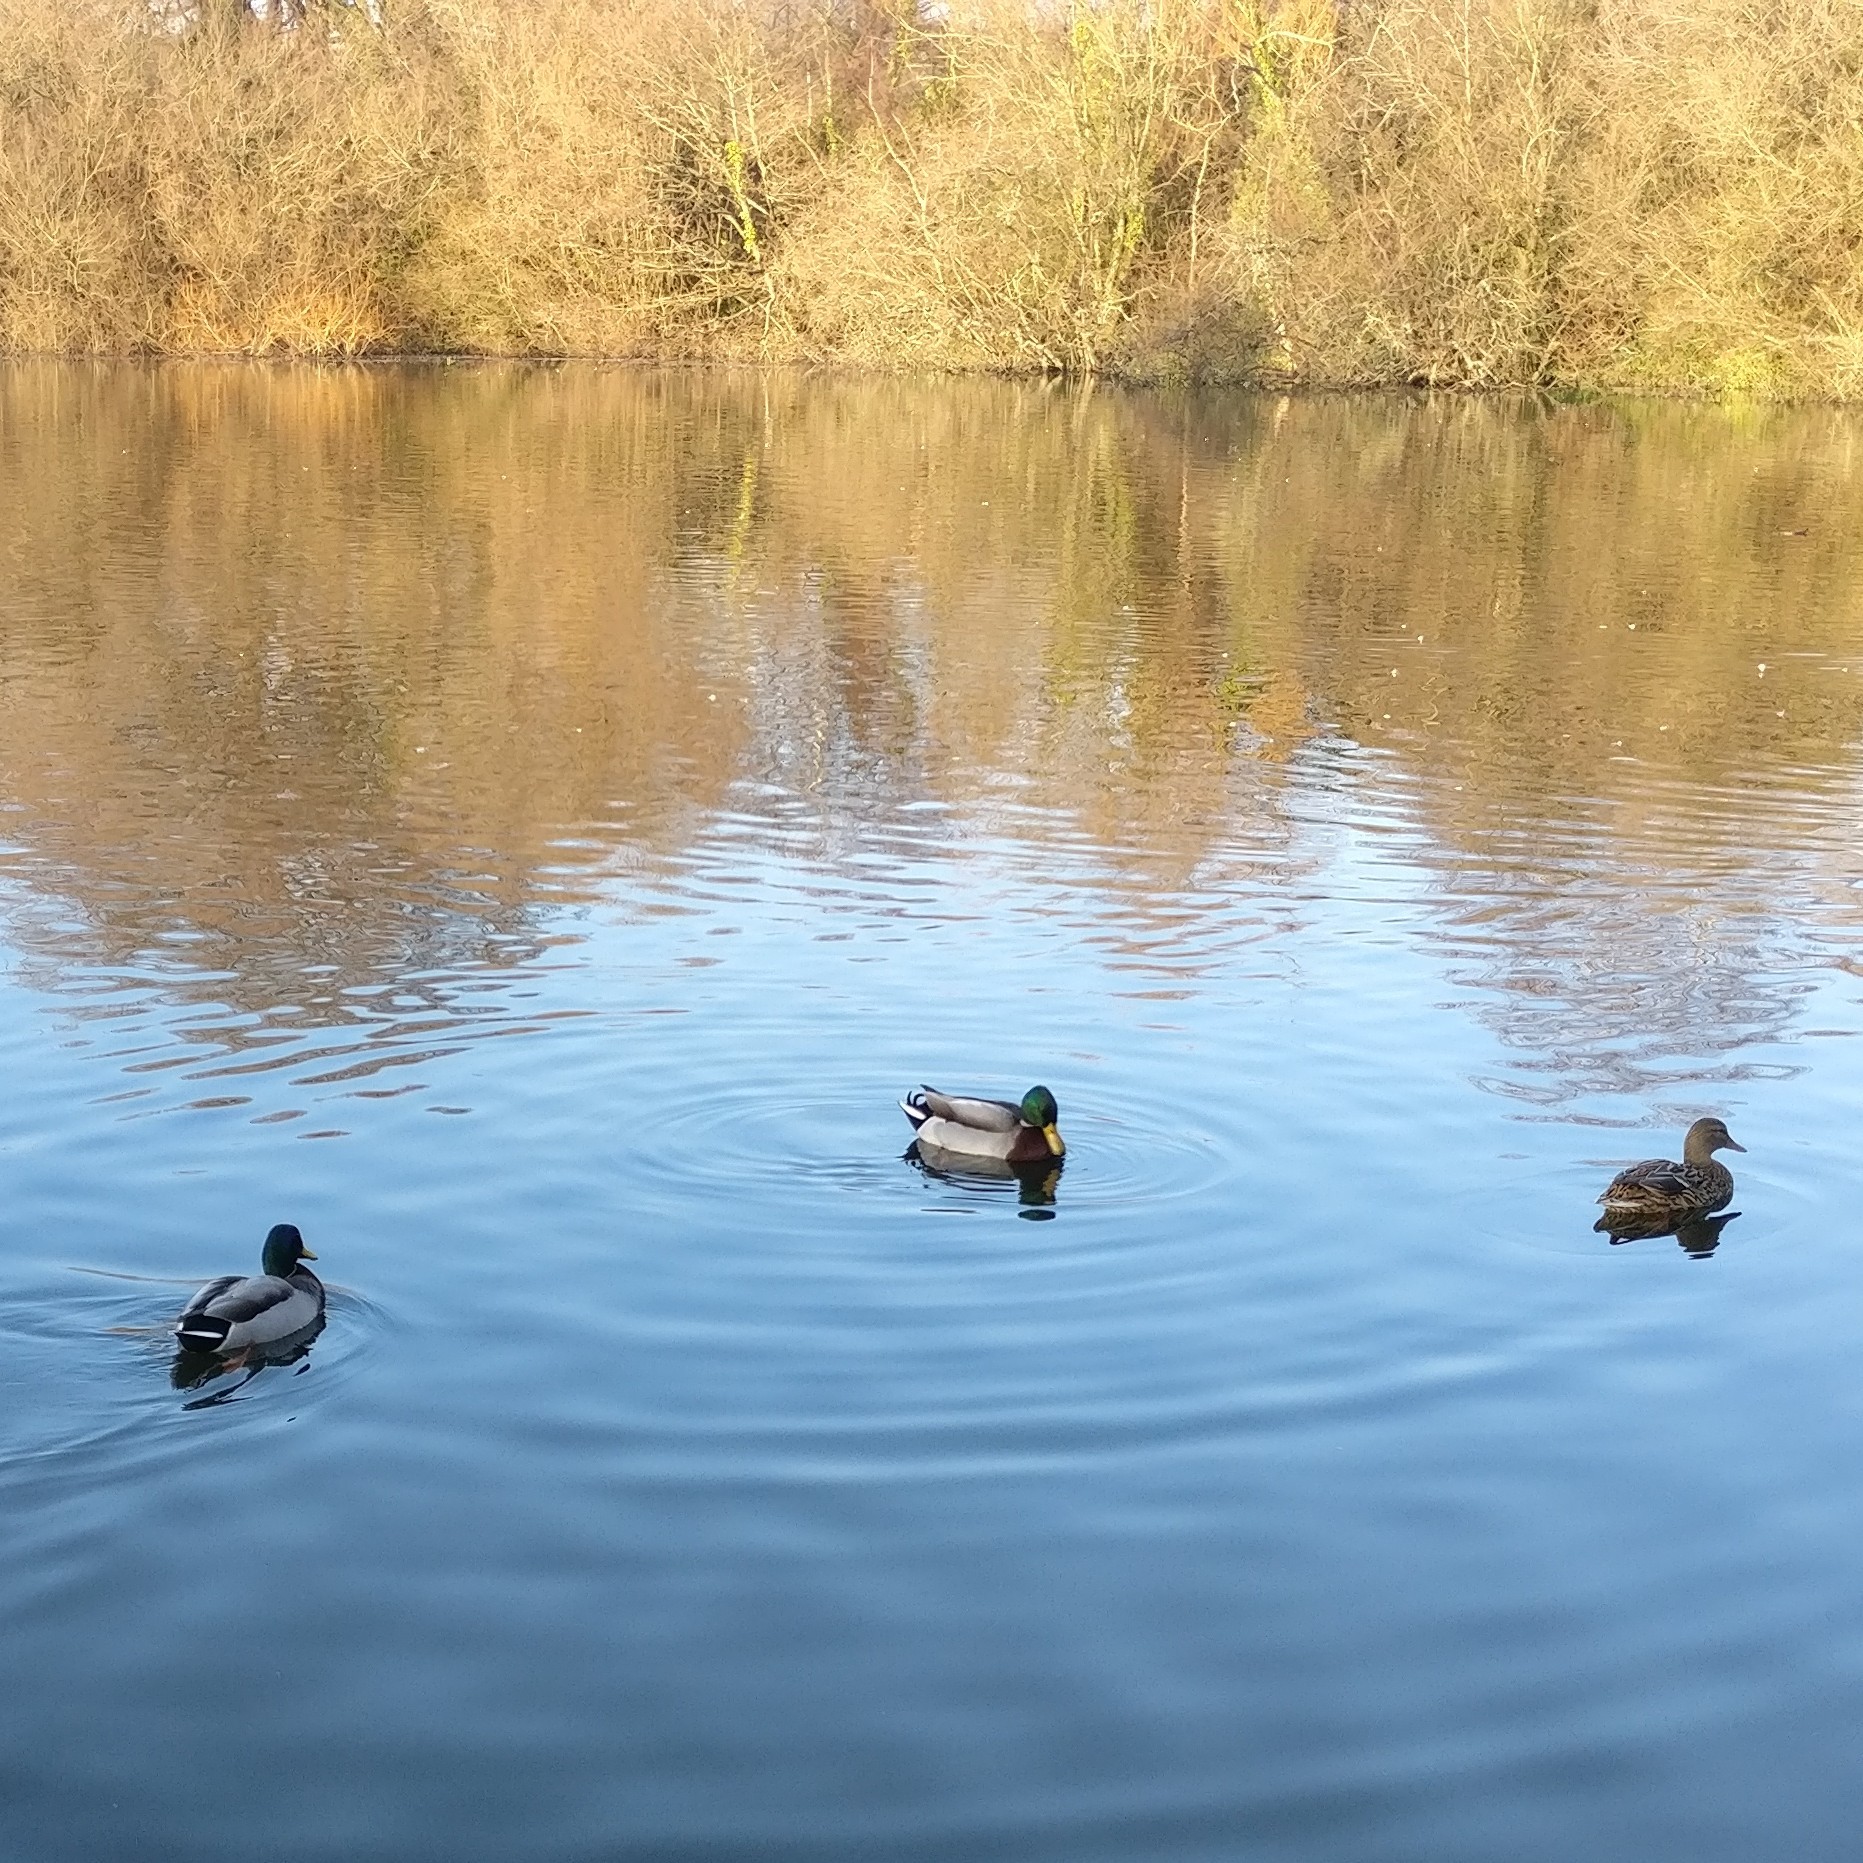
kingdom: Animalia
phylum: Chordata
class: Aves
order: Anseriformes
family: Anatidae
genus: Anas
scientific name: Anas platyrhynchos
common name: Mallard
